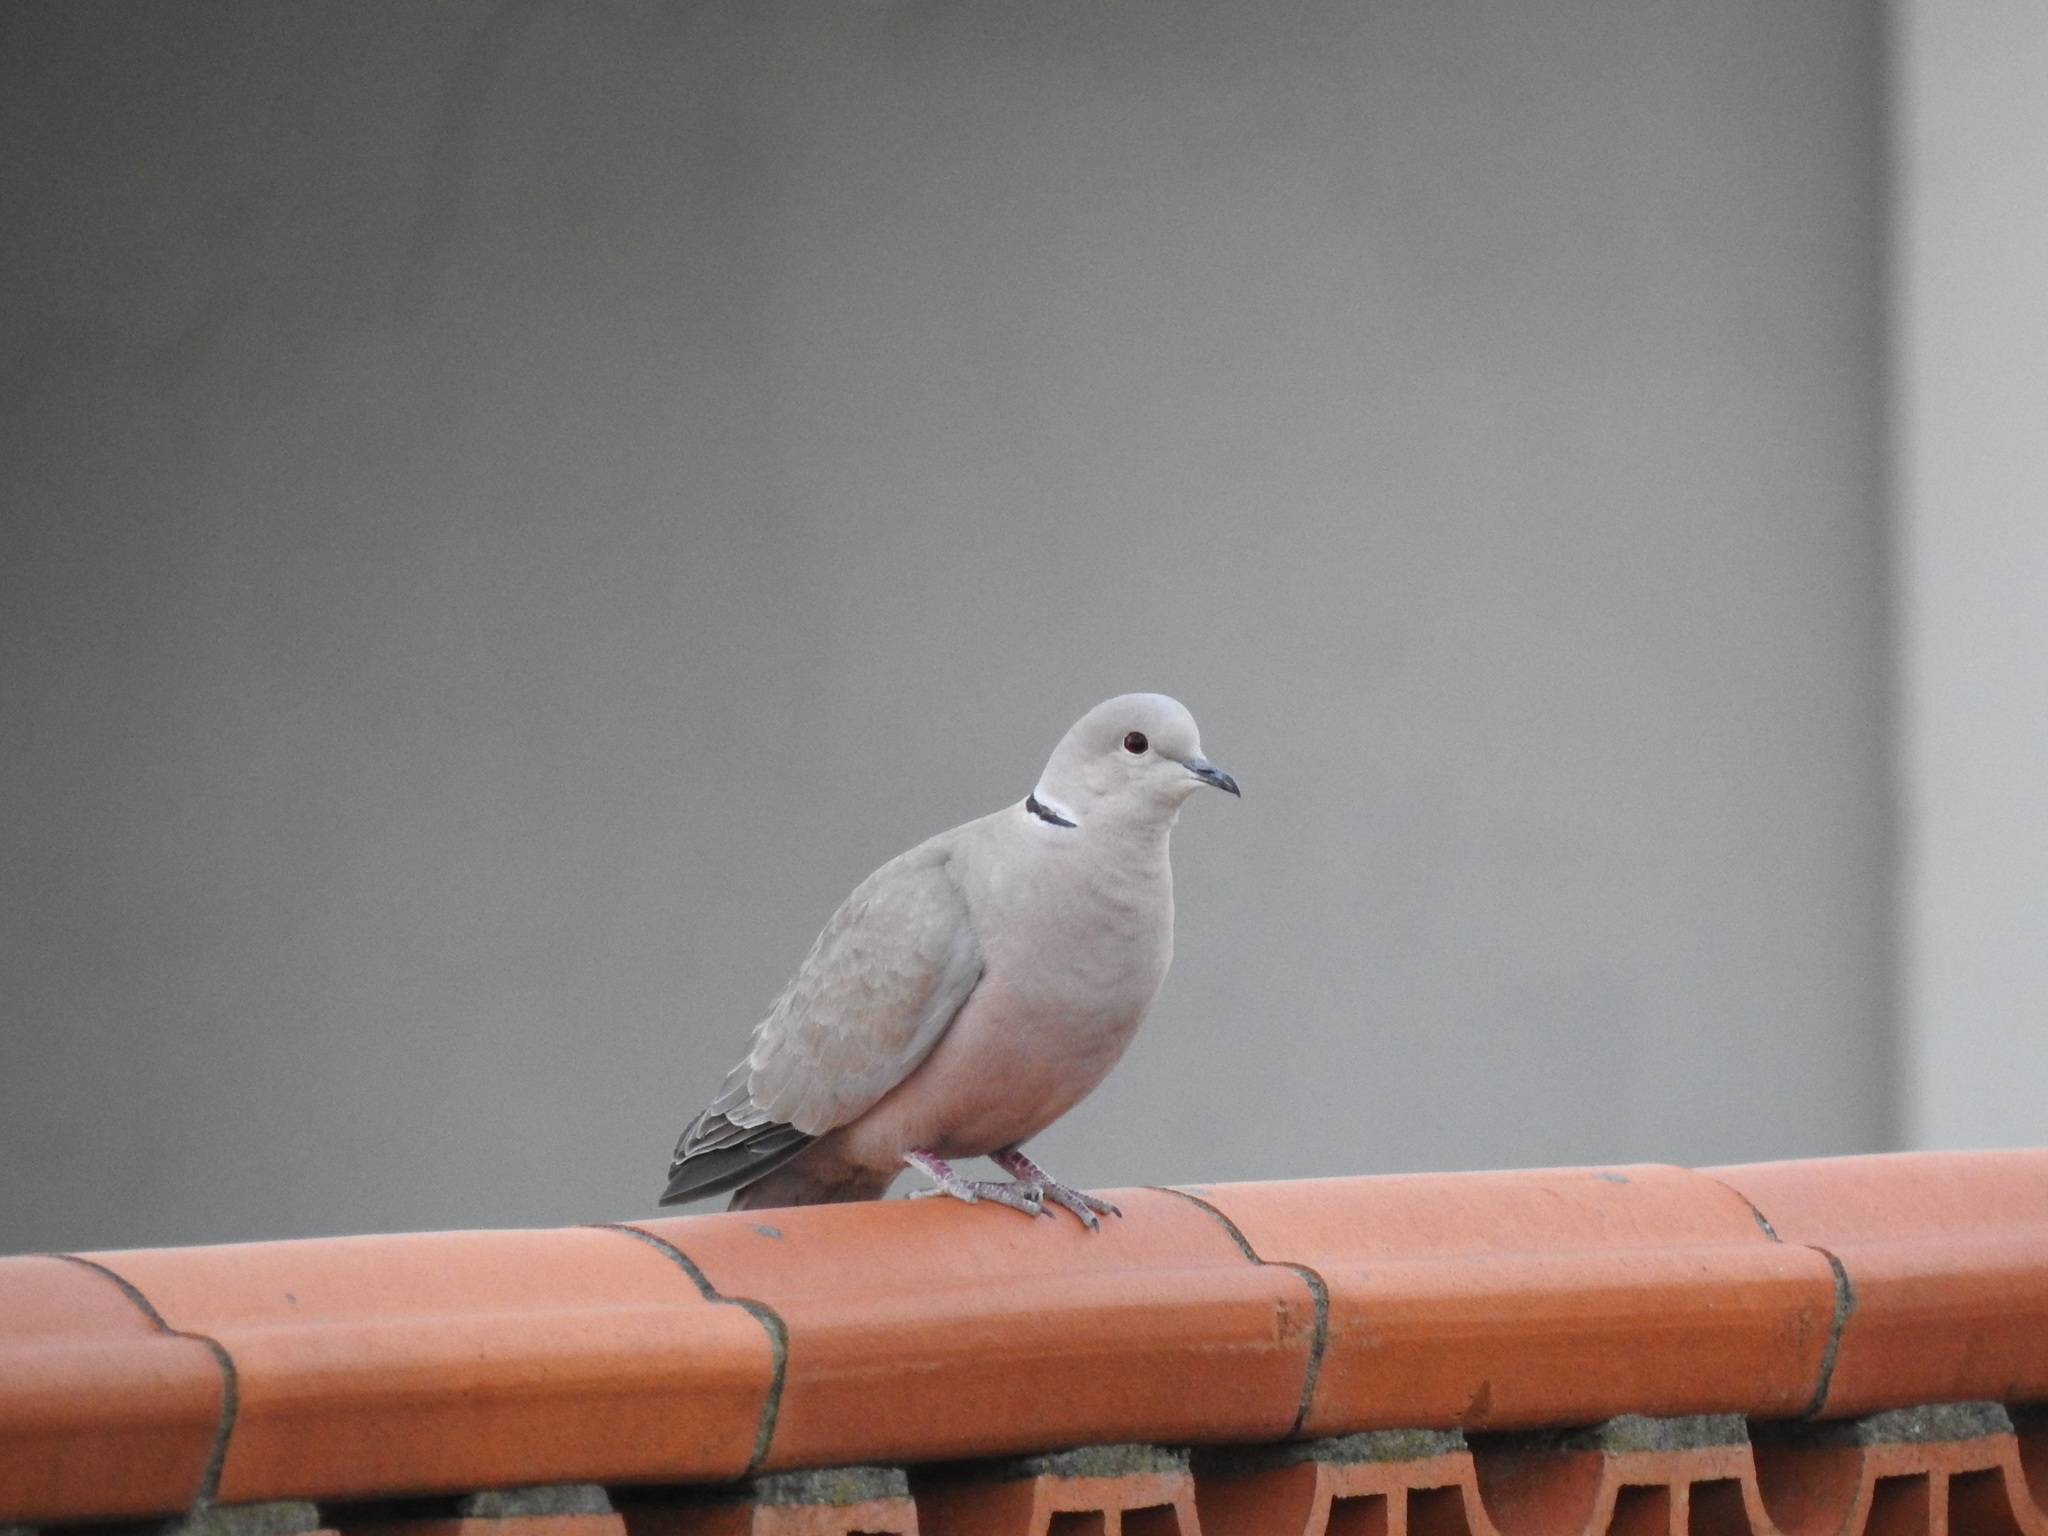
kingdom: Animalia
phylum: Chordata
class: Aves
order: Columbiformes
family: Columbidae
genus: Streptopelia
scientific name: Streptopelia decaocto
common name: Eurasian collared dove
